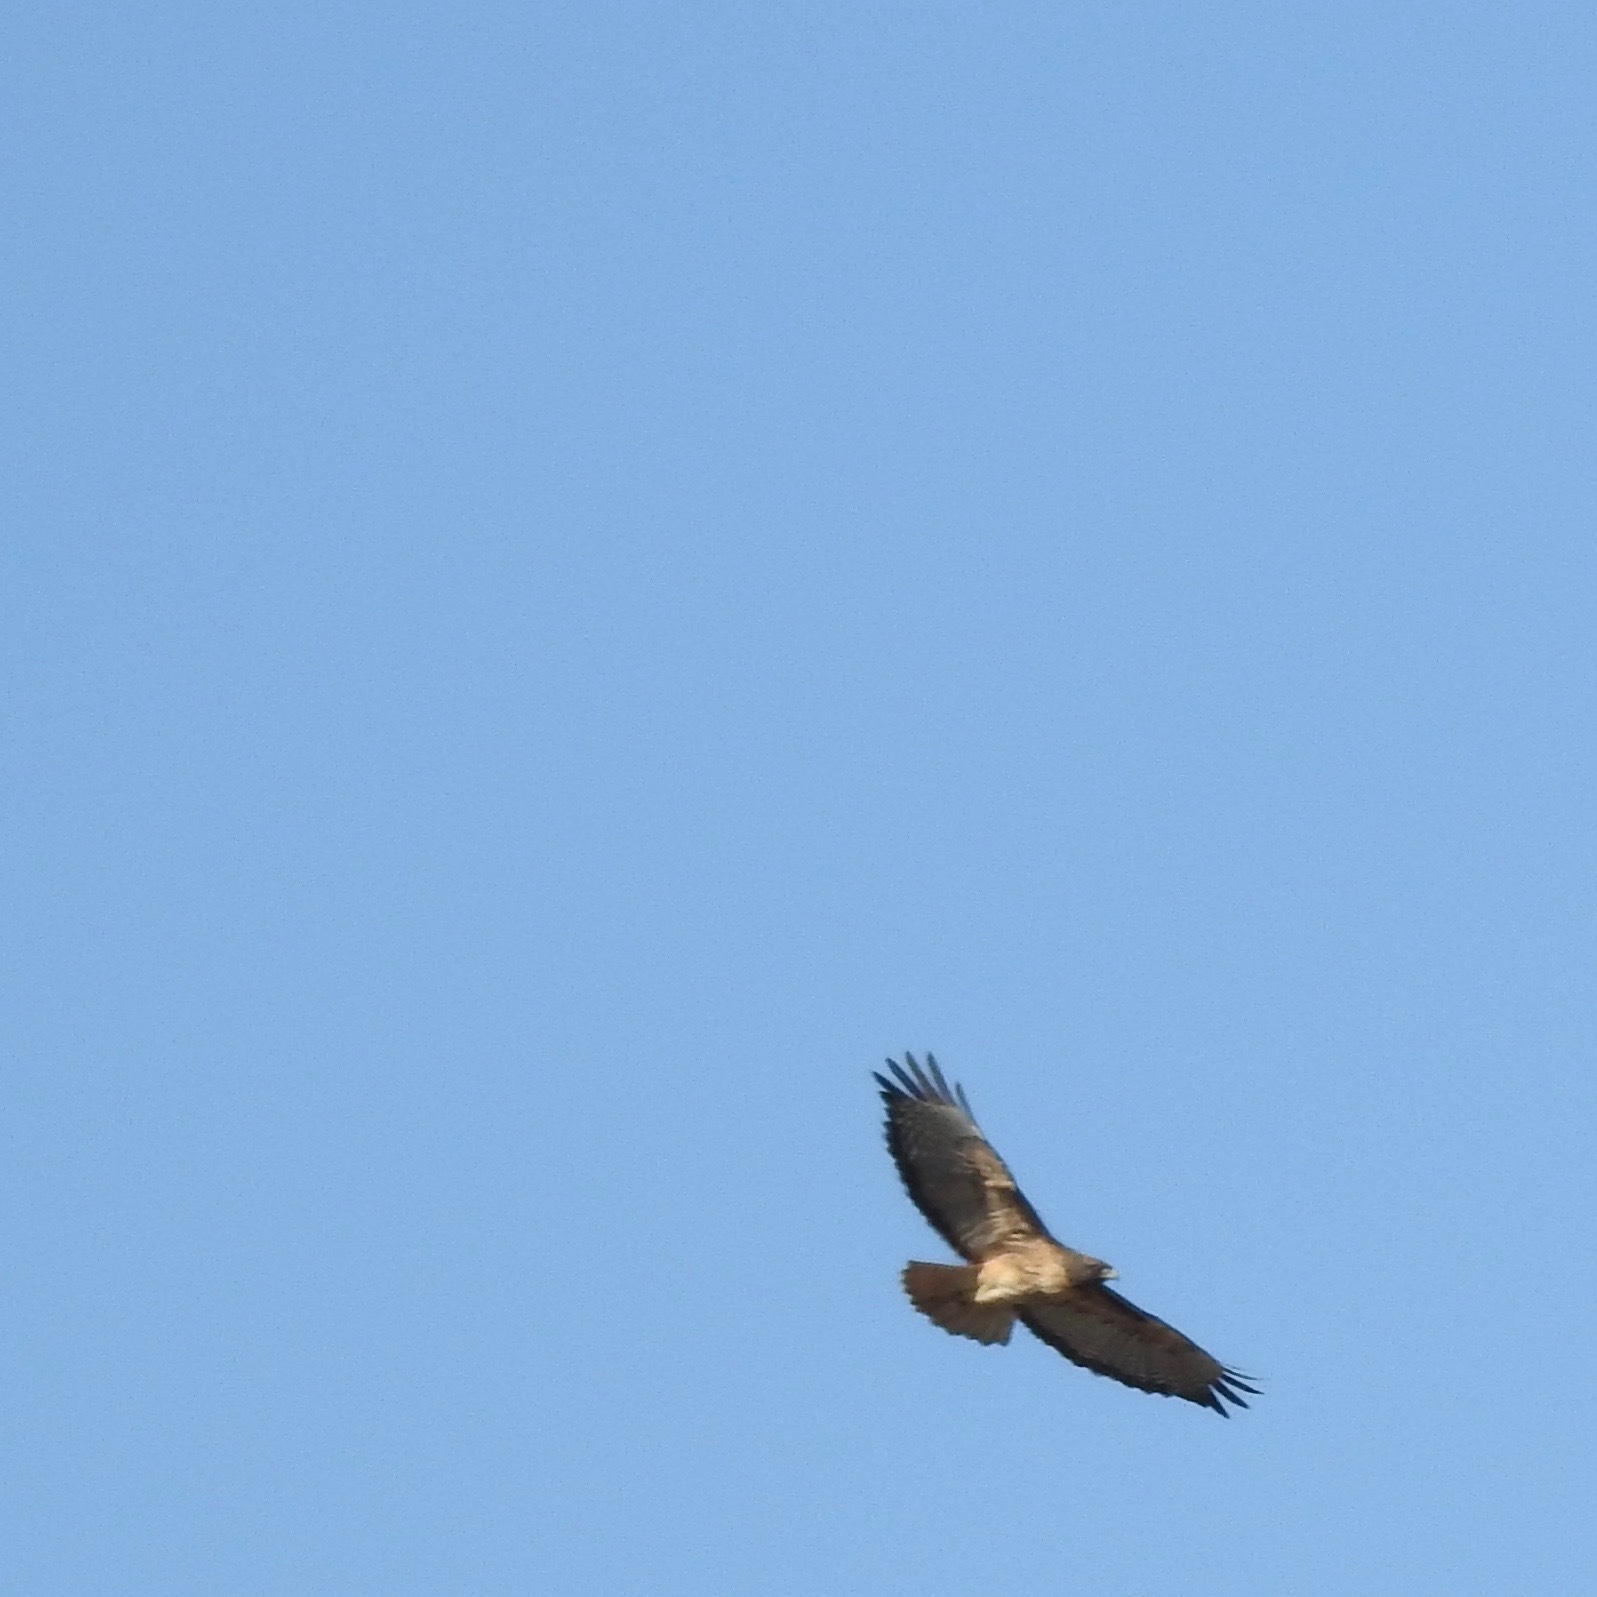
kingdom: Animalia
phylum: Chordata
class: Aves
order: Accipitriformes
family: Accipitridae
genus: Buteo
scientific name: Buteo jamaicensis
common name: Red-tailed hawk
